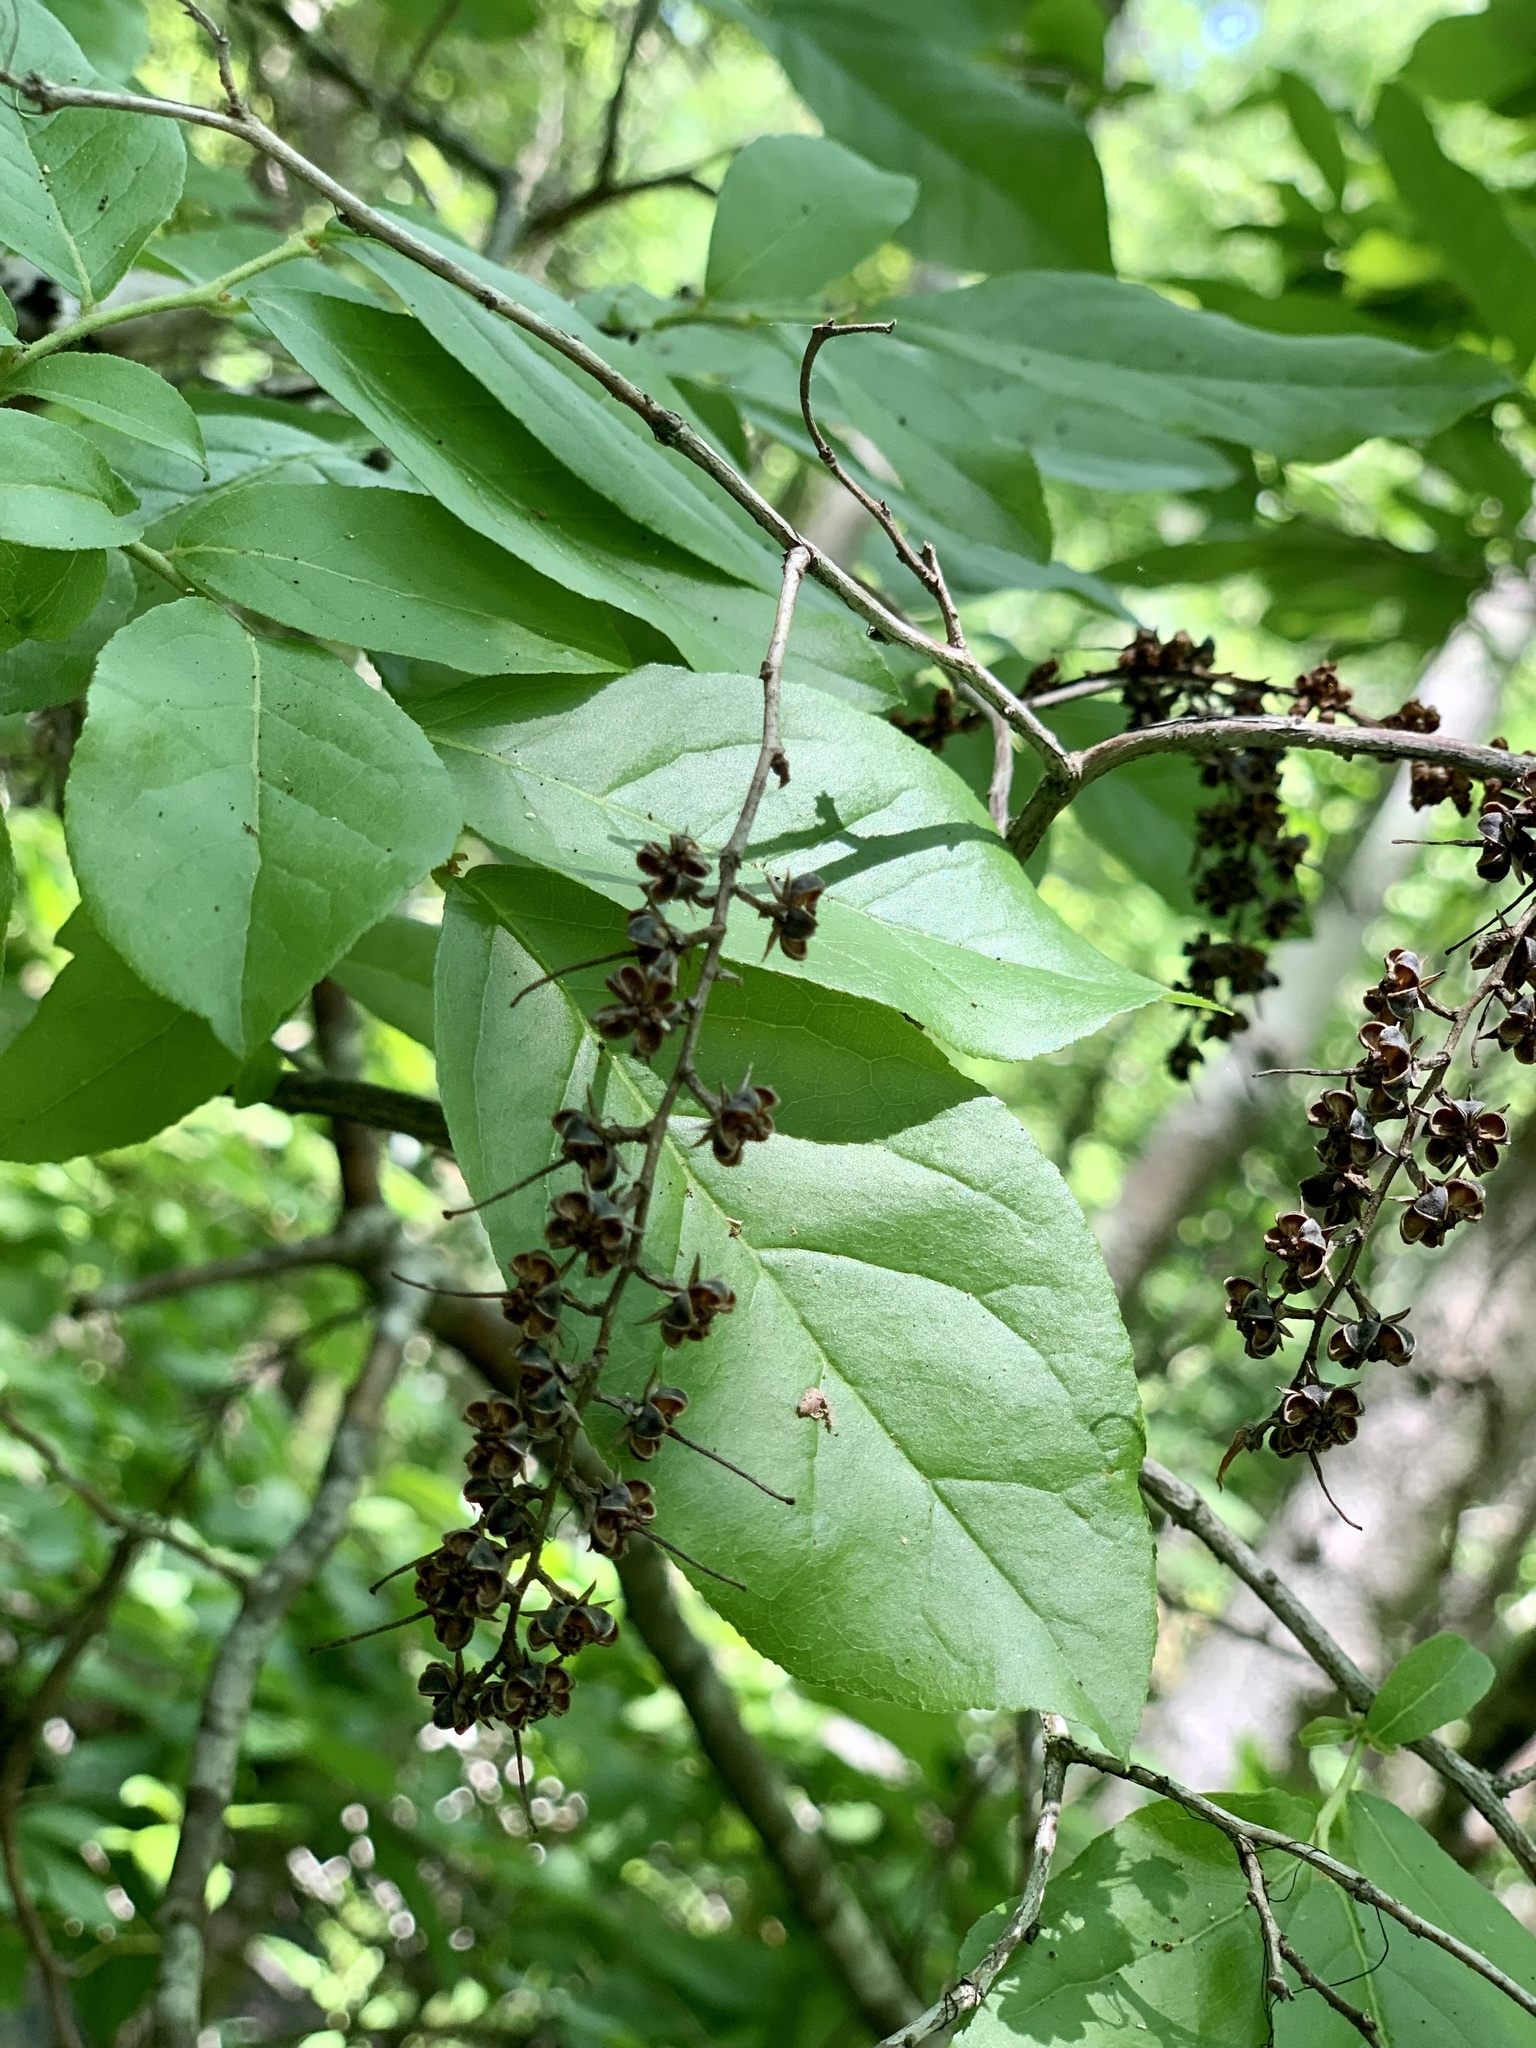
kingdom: Plantae
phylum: Tracheophyta
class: Magnoliopsida
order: Ericales
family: Ericaceae
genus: Eubotrys
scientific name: Eubotrys racemosa
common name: Fetterbush
